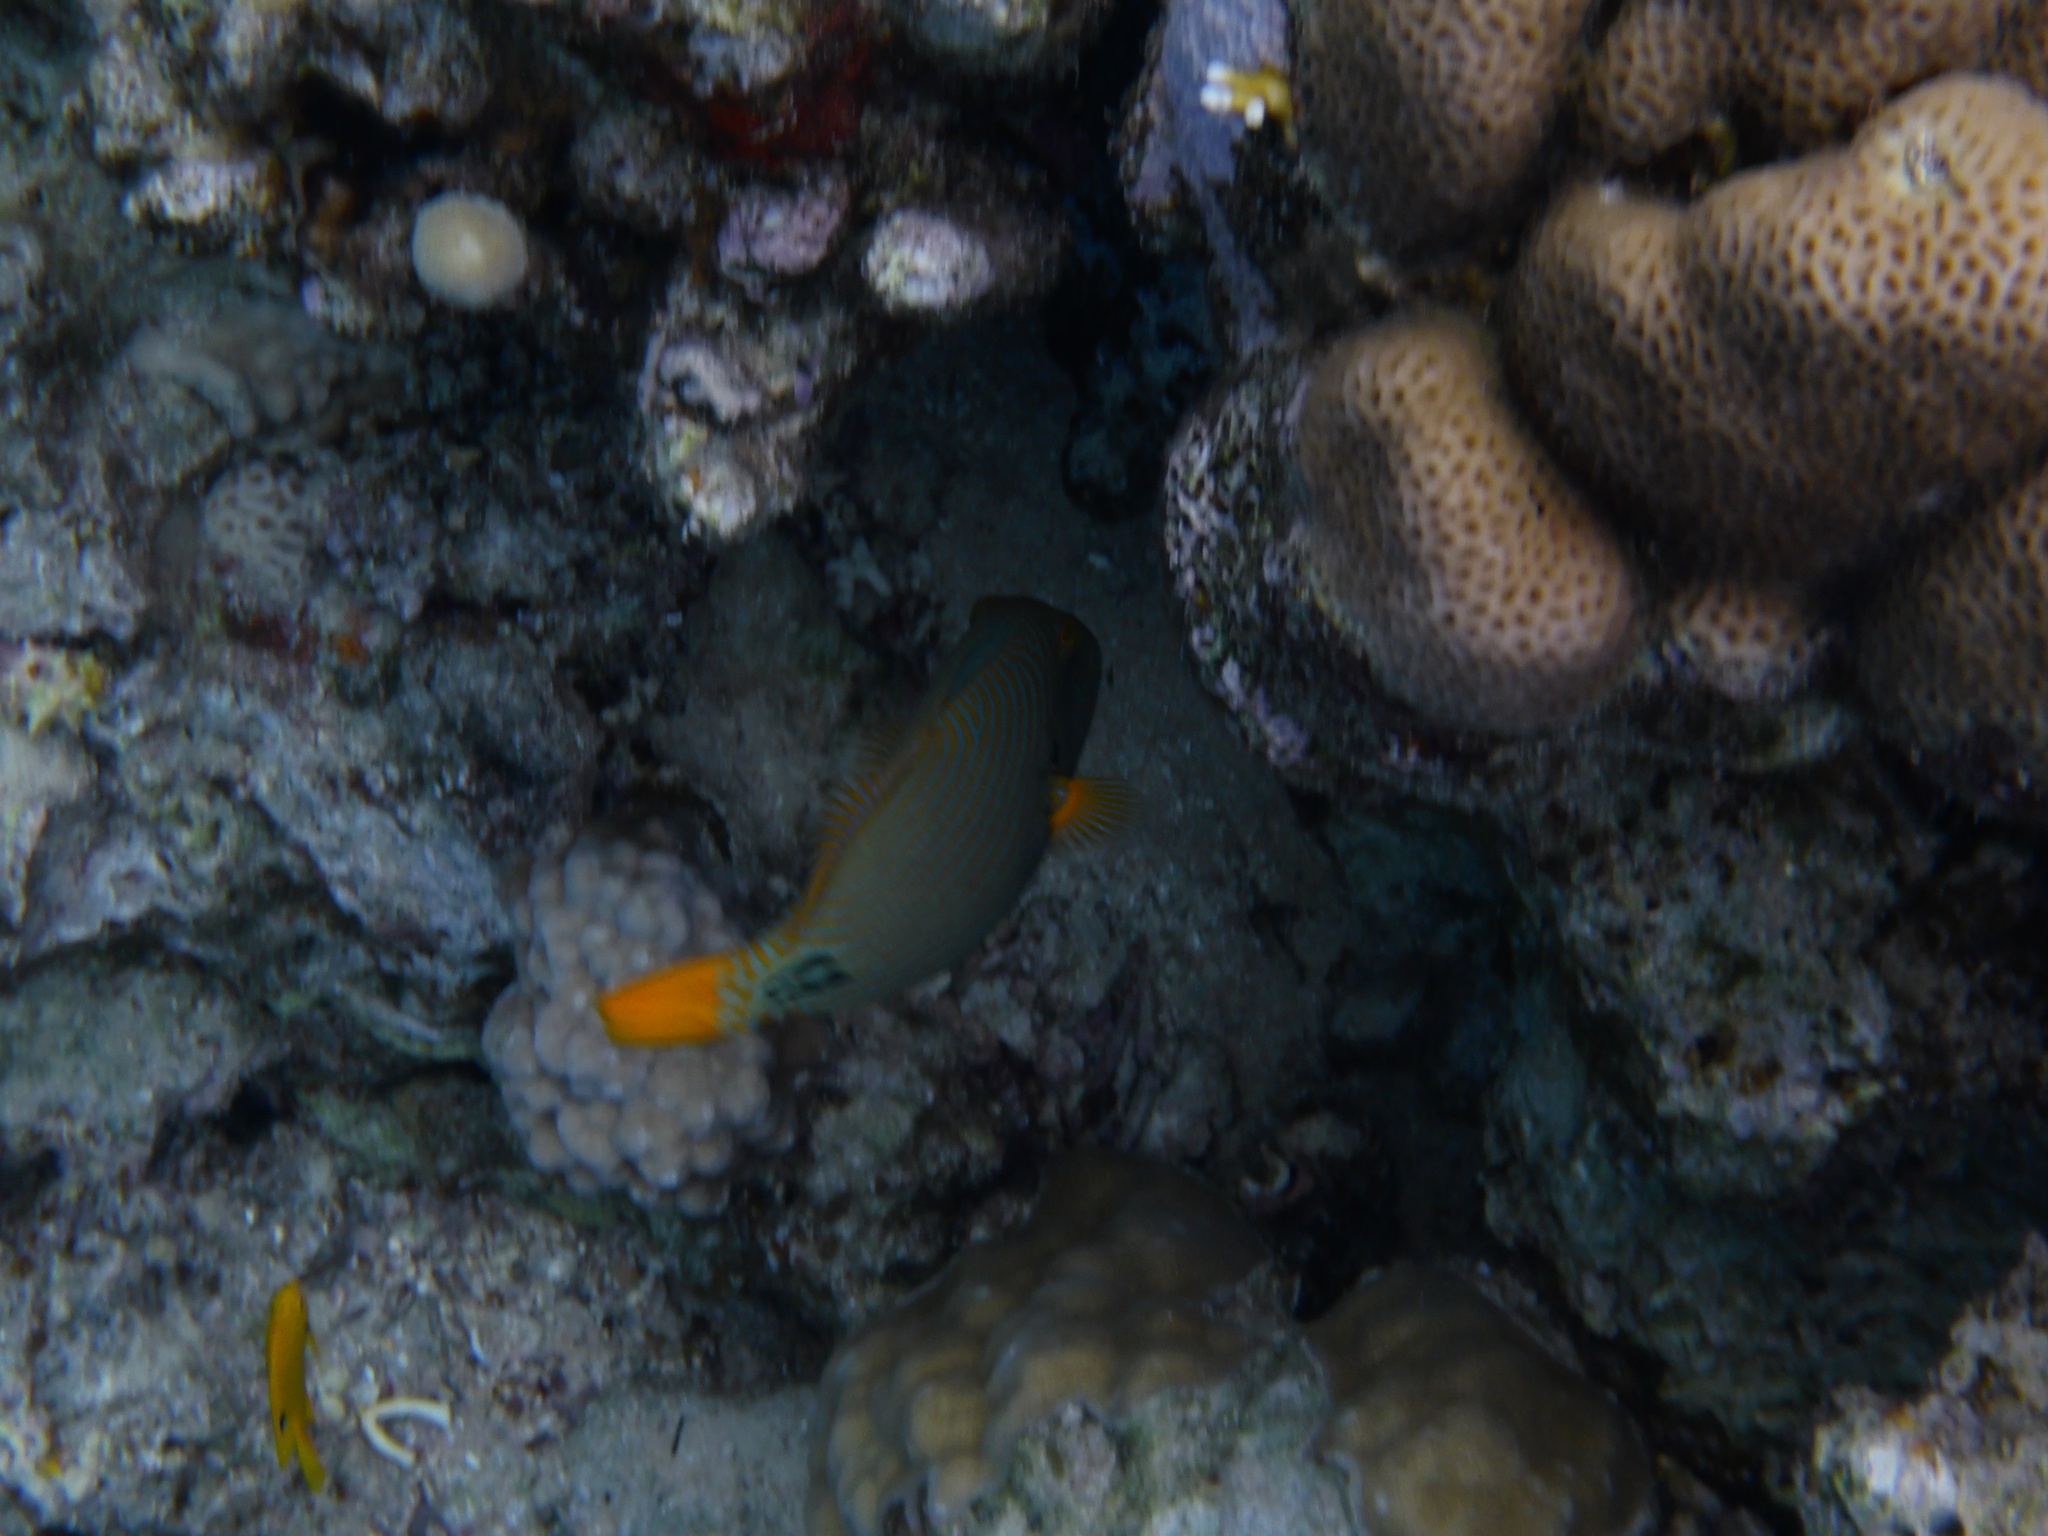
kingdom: Animalia
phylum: Chordata
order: Tetraodontiformes
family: Balistidae
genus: Balistapus
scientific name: Balistapus undulatus
